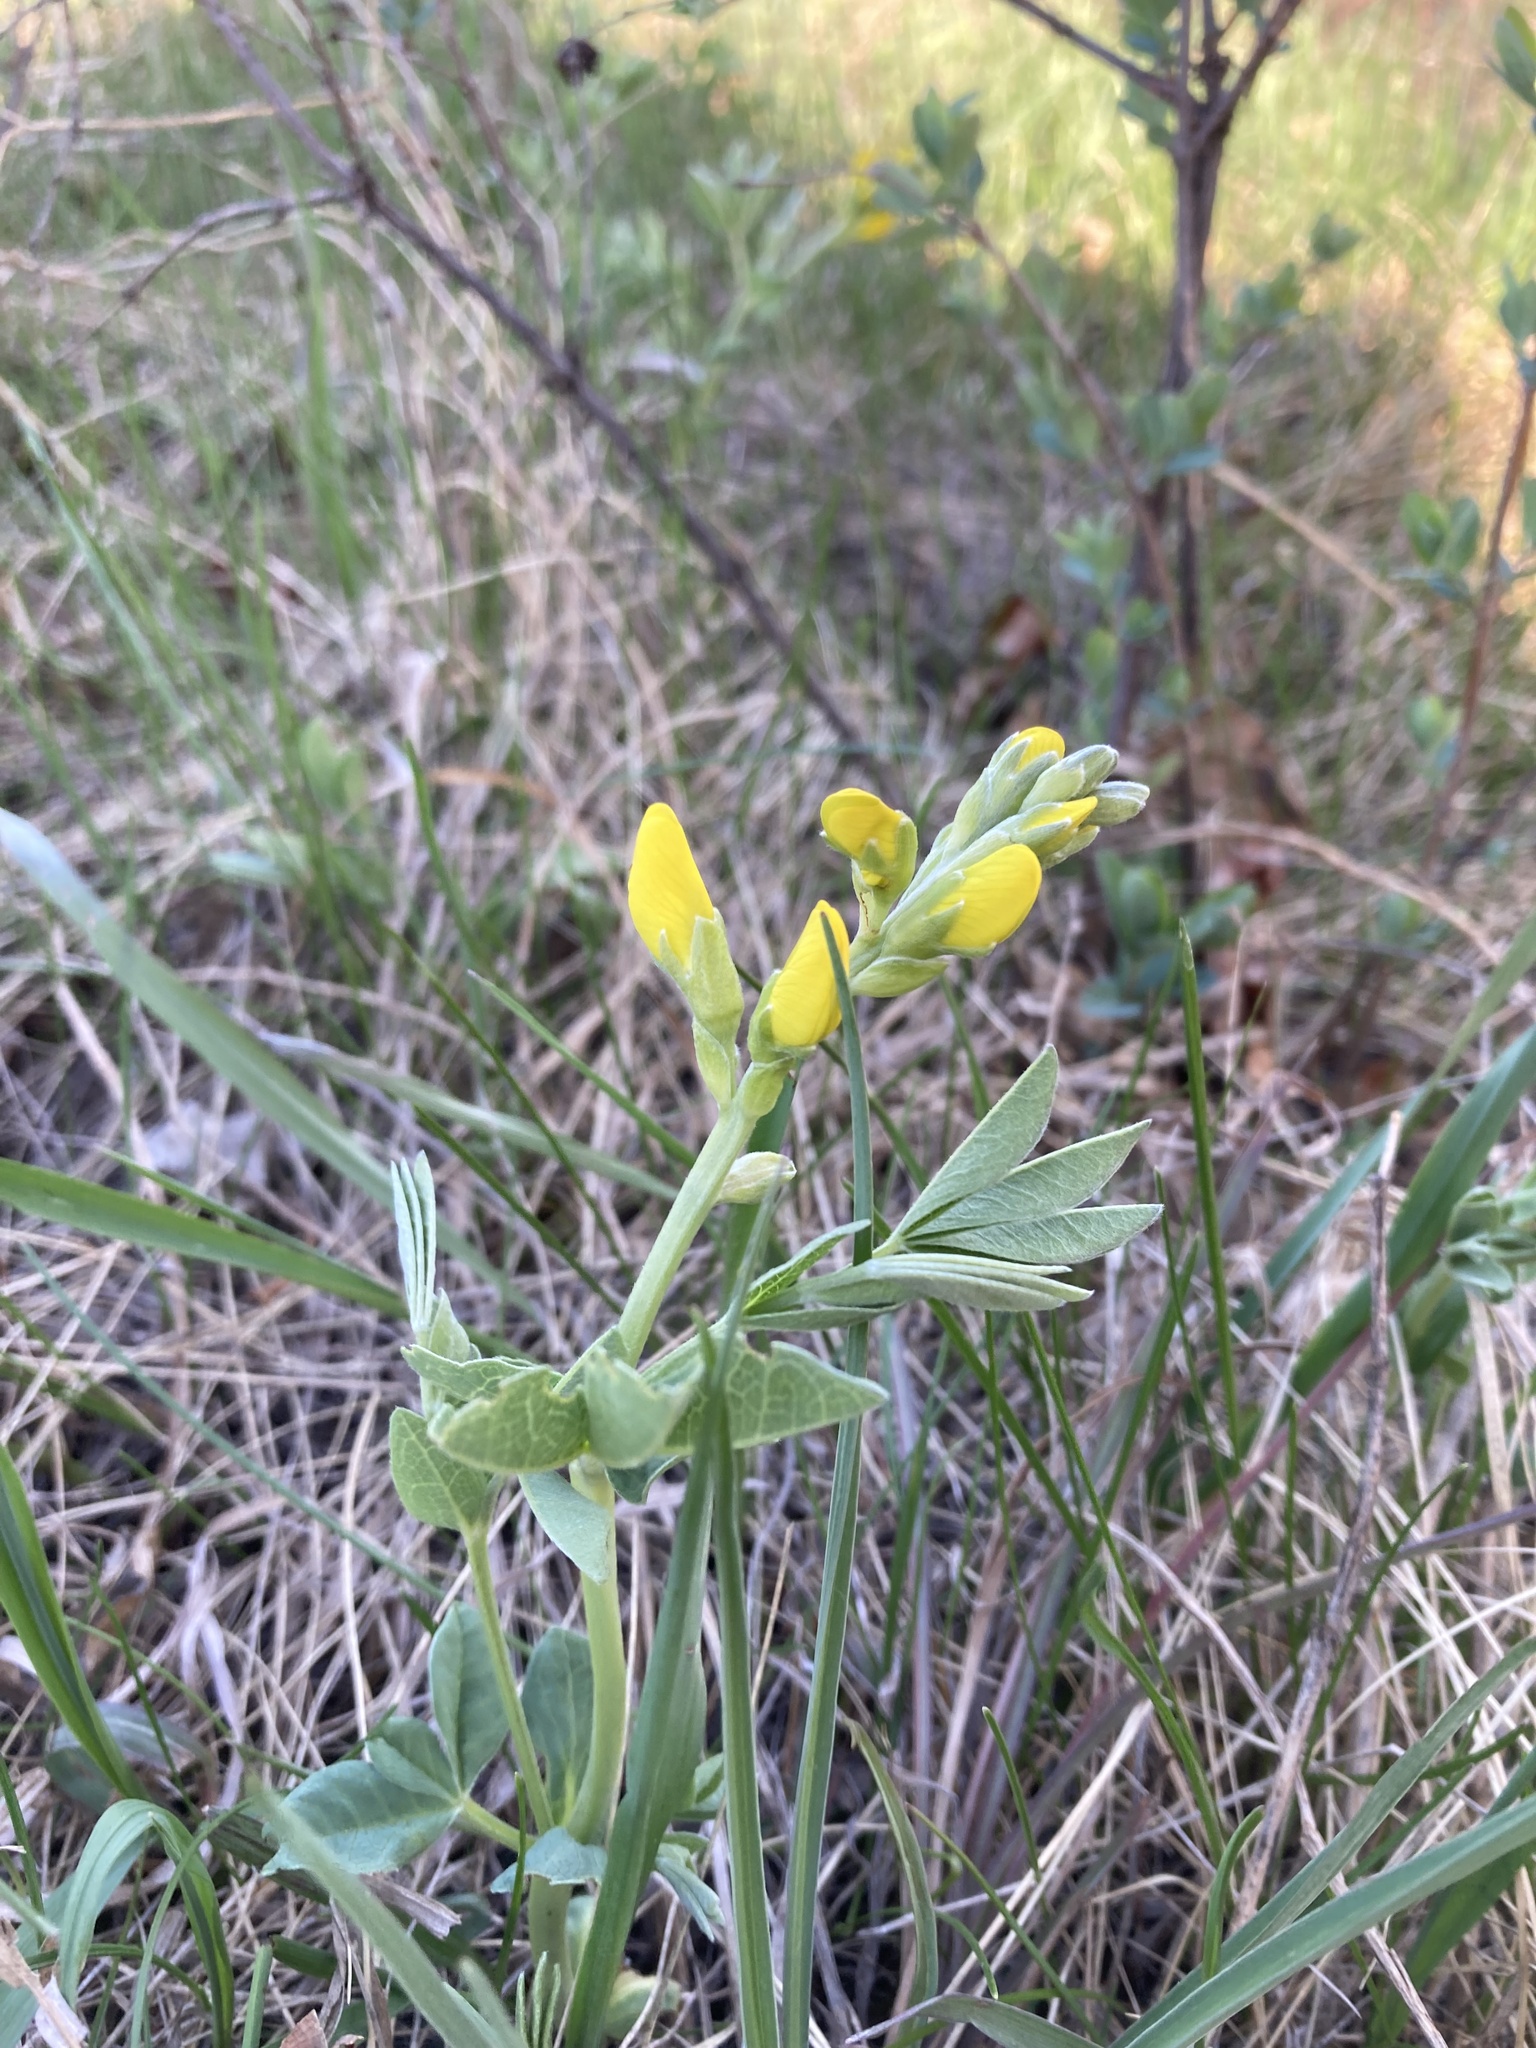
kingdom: Plantae
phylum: Tracheophyta
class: Magnoliopsida
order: Fabales
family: Fabaceae
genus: Thermopsis
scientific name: Thermopsis rhombifolia
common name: Circle-pod-pea
